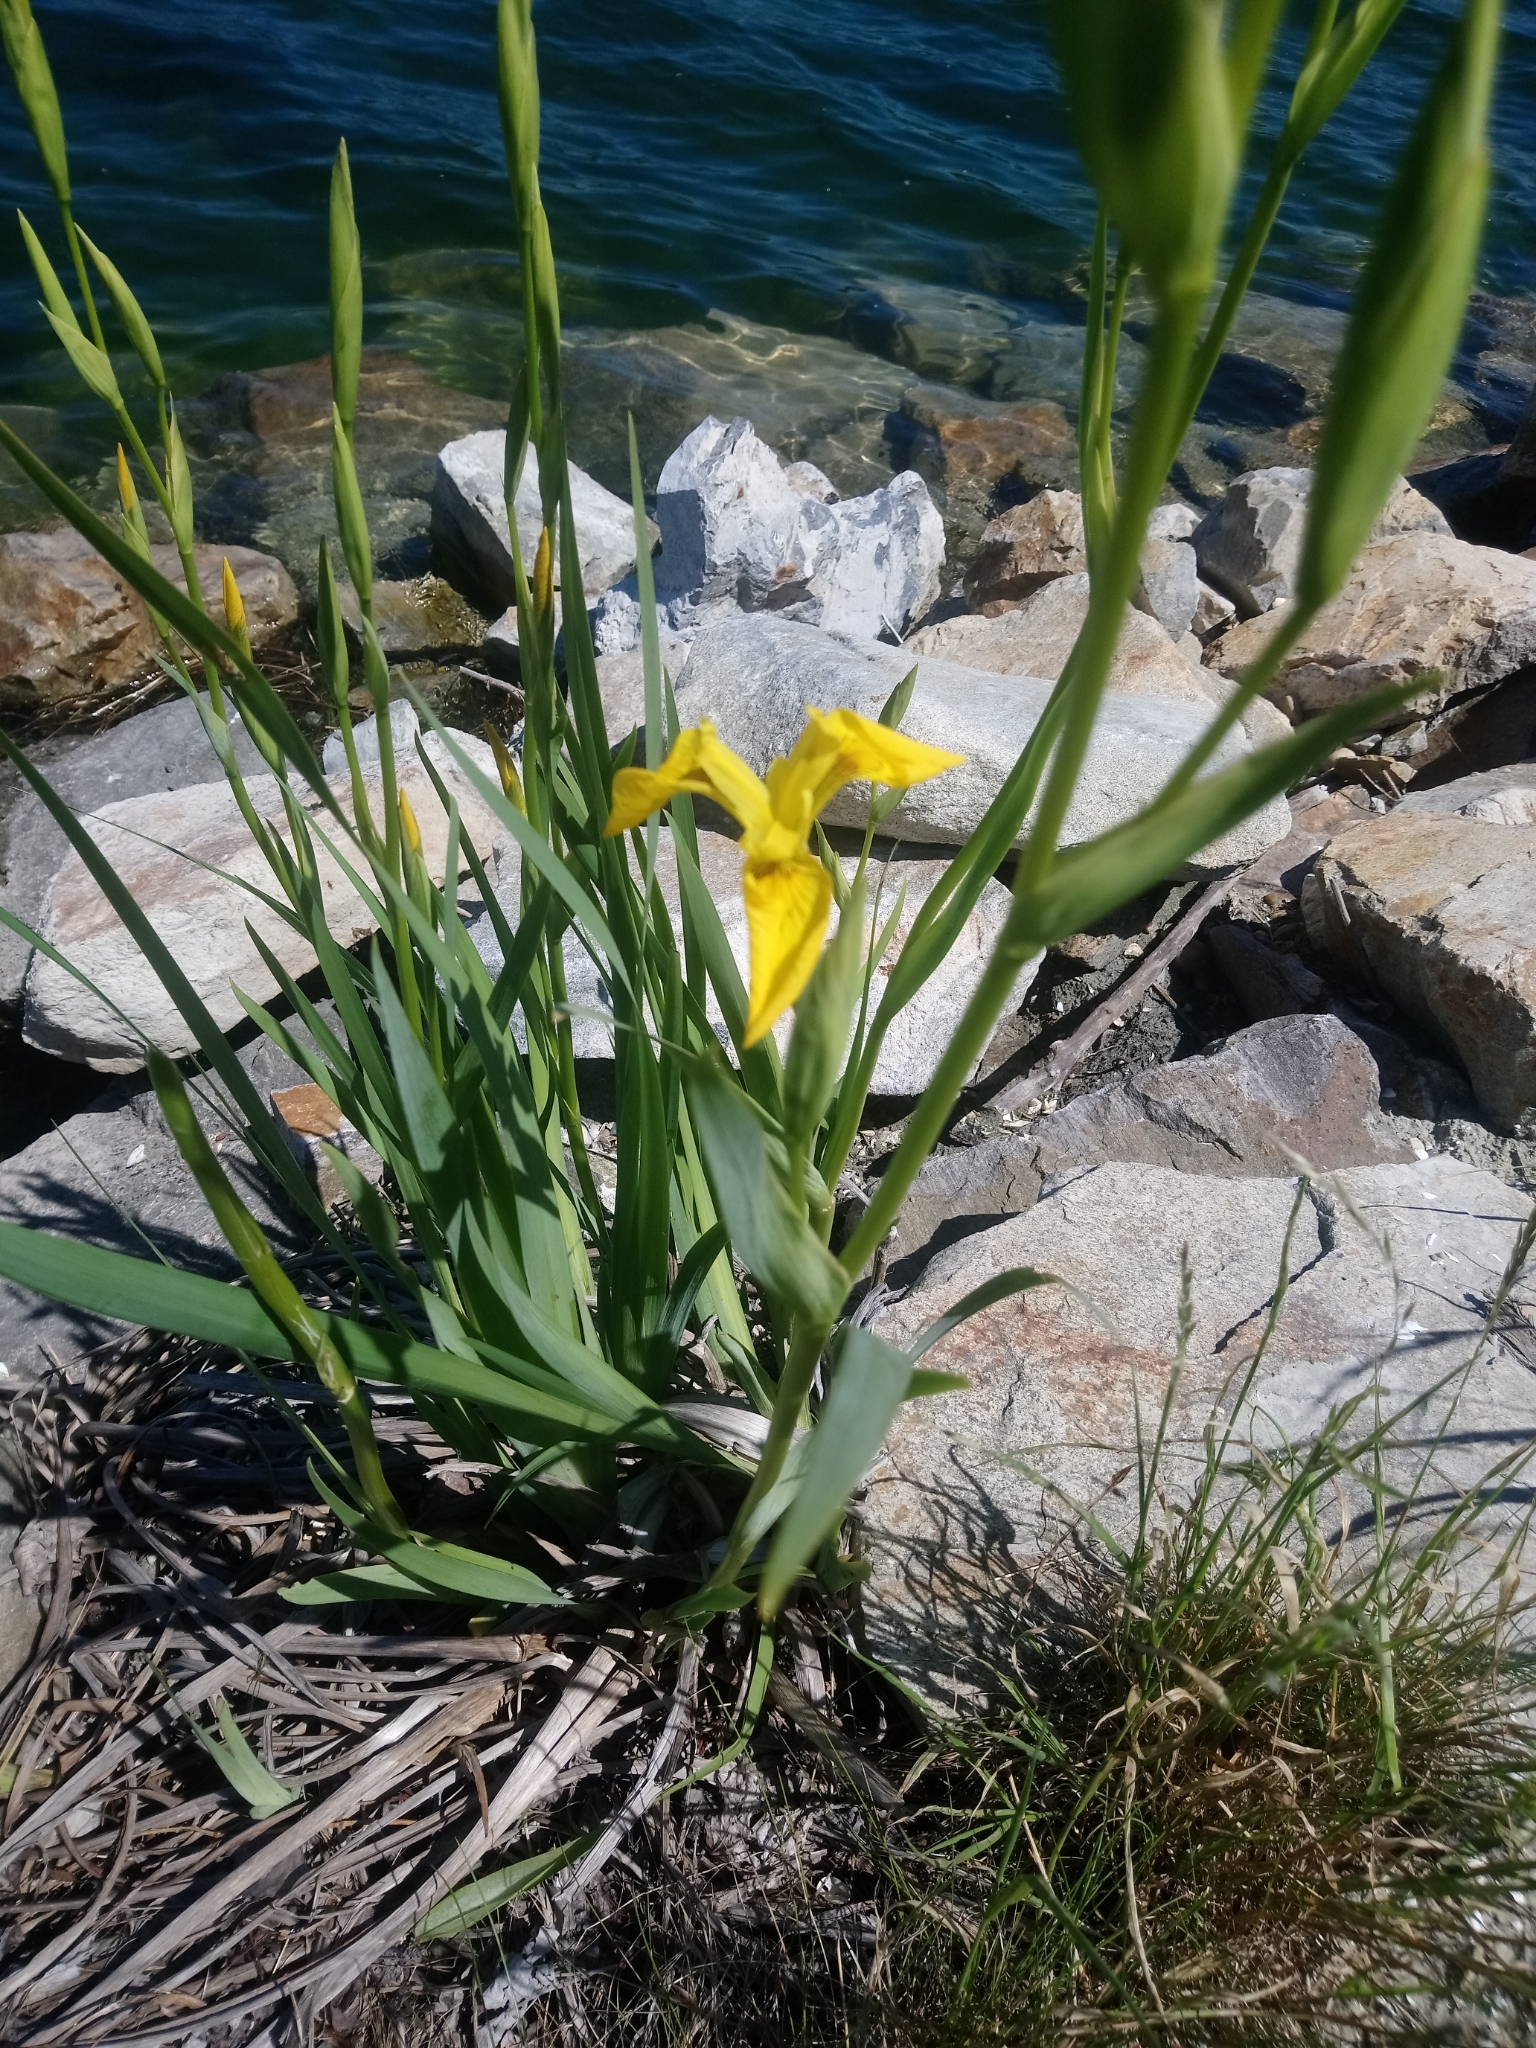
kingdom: Plantae
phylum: Tracheophyta
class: Liliopsida
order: Asparagales
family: Iridaceae
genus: Iris
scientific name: Iris pseudacorus
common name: Yellow flag
